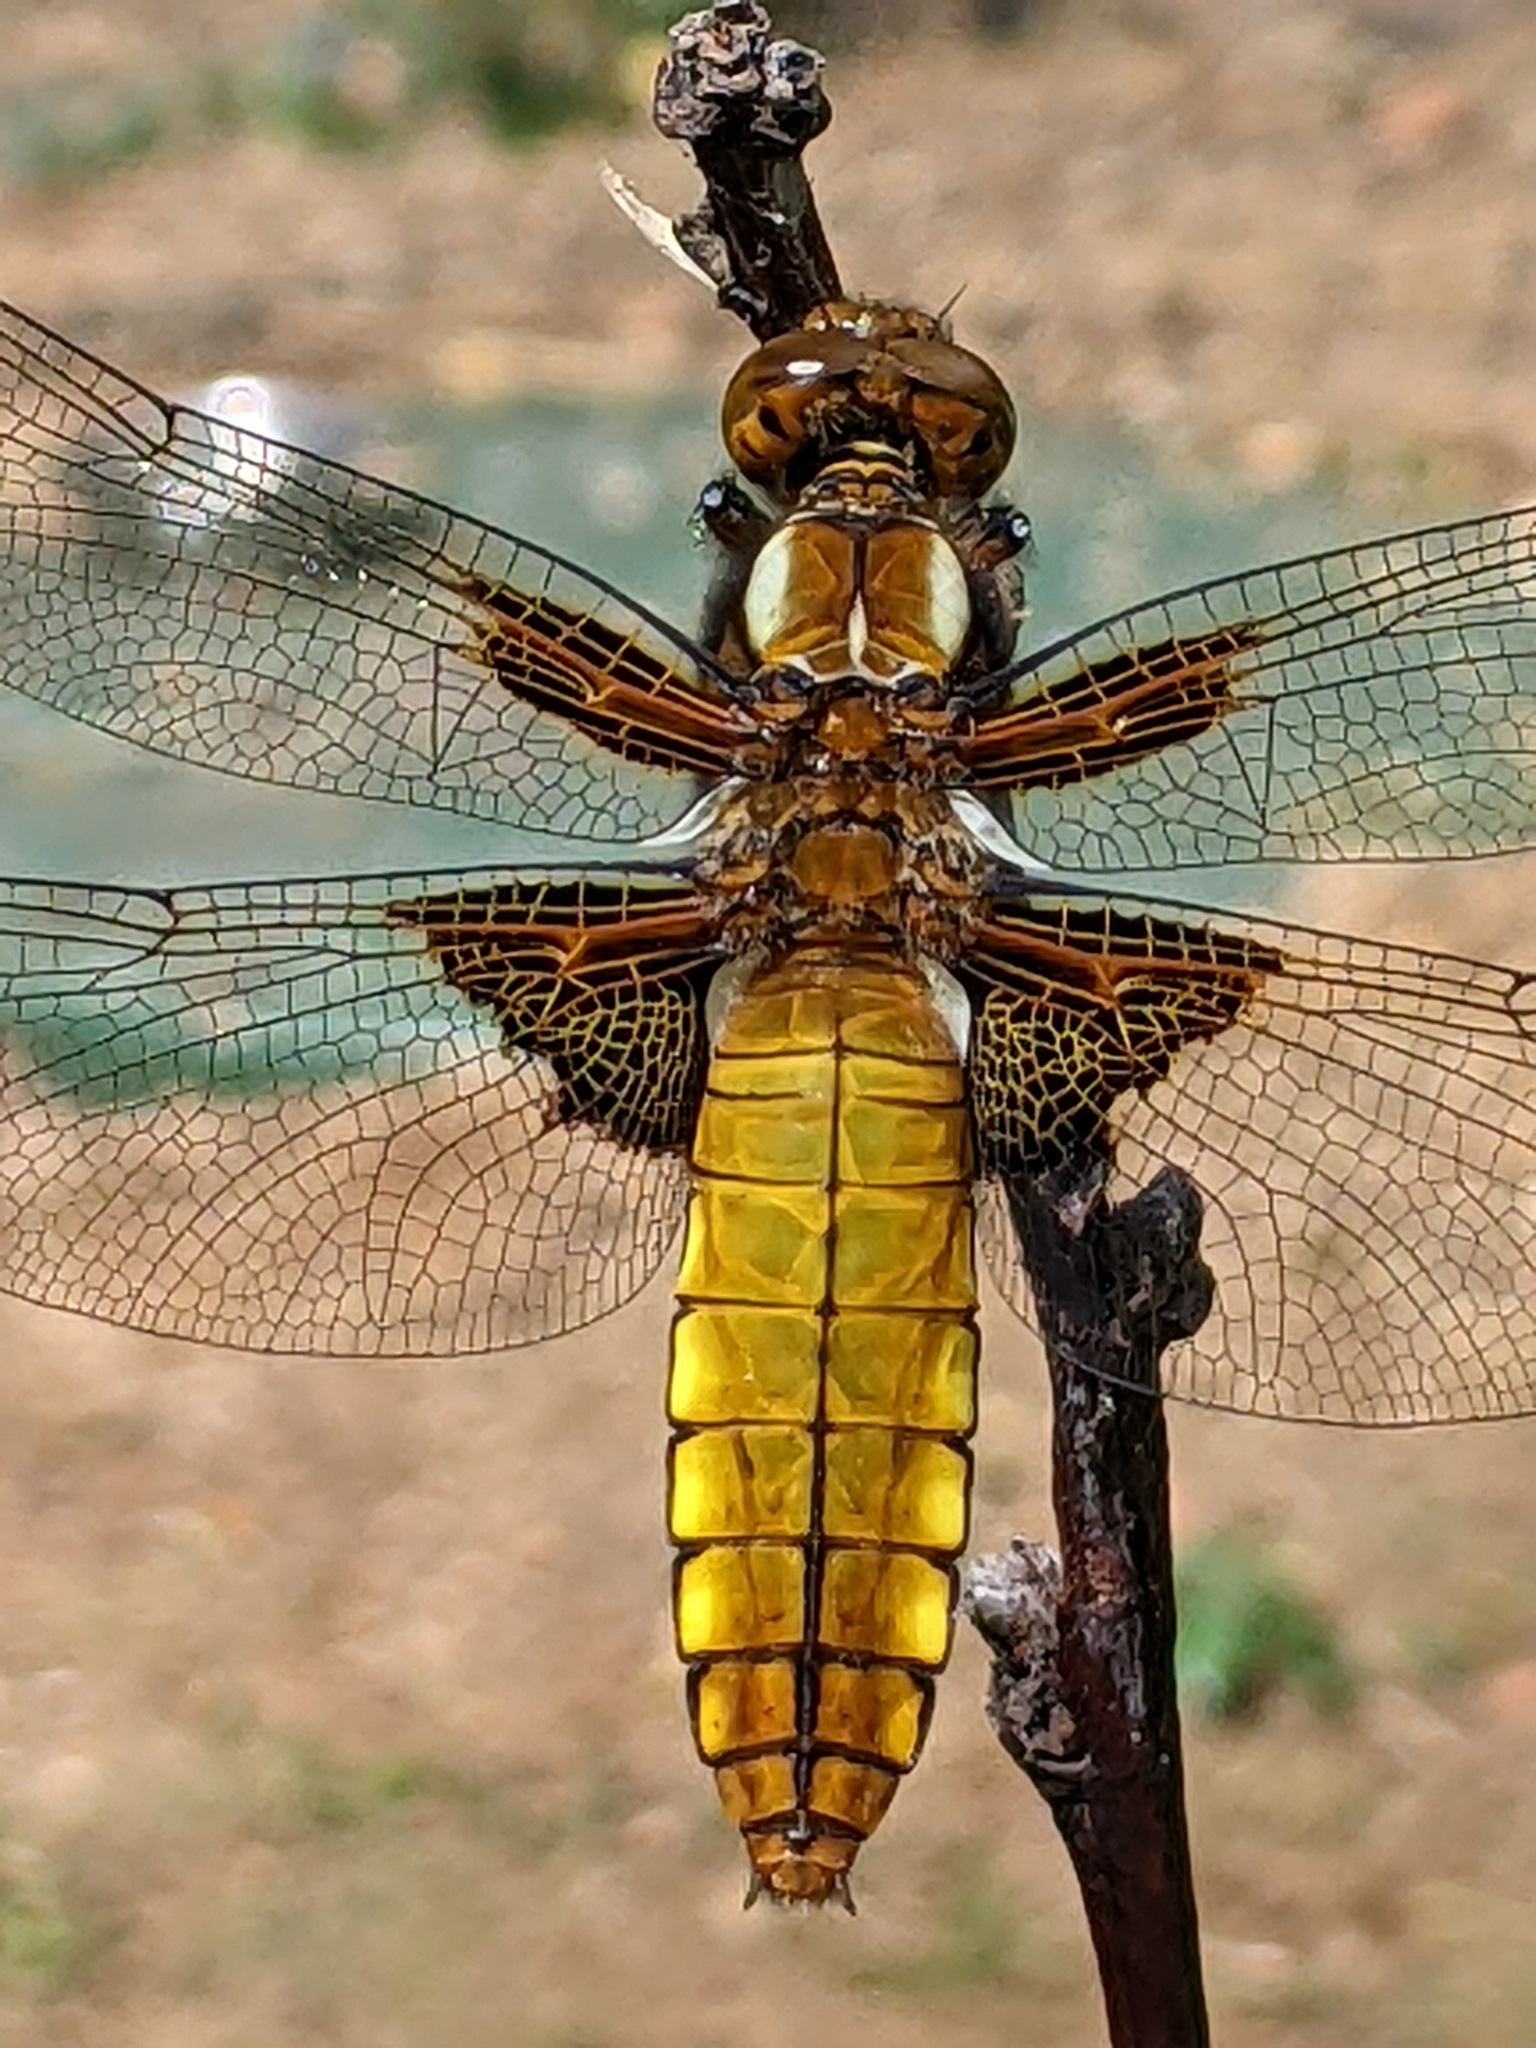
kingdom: Animalia
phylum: Arthropoda
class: Insecta
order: Odonata
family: Libellulidae
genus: Libellula
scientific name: Libellula depressa
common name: Broad-bodied chaser
